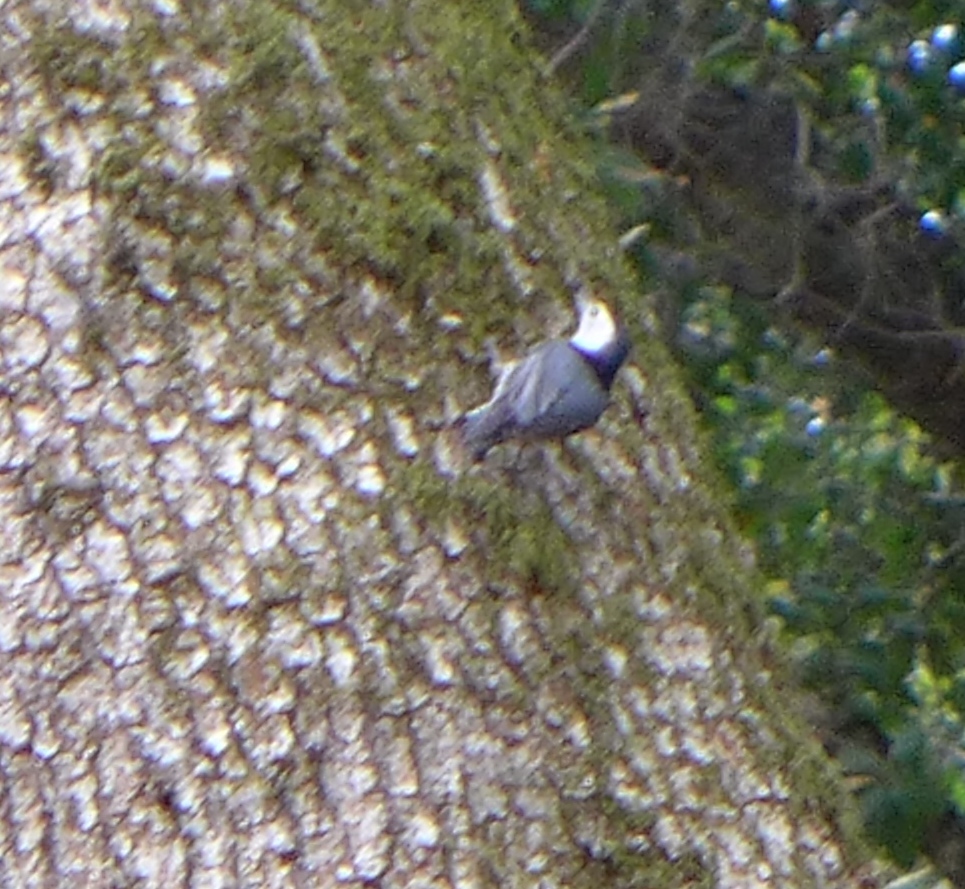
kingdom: Animalia
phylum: Chordata
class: Aves
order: Passeriformes
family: Sittidae
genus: Sitta
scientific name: Sitta carolinensis
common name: White-breasted nuthatch
